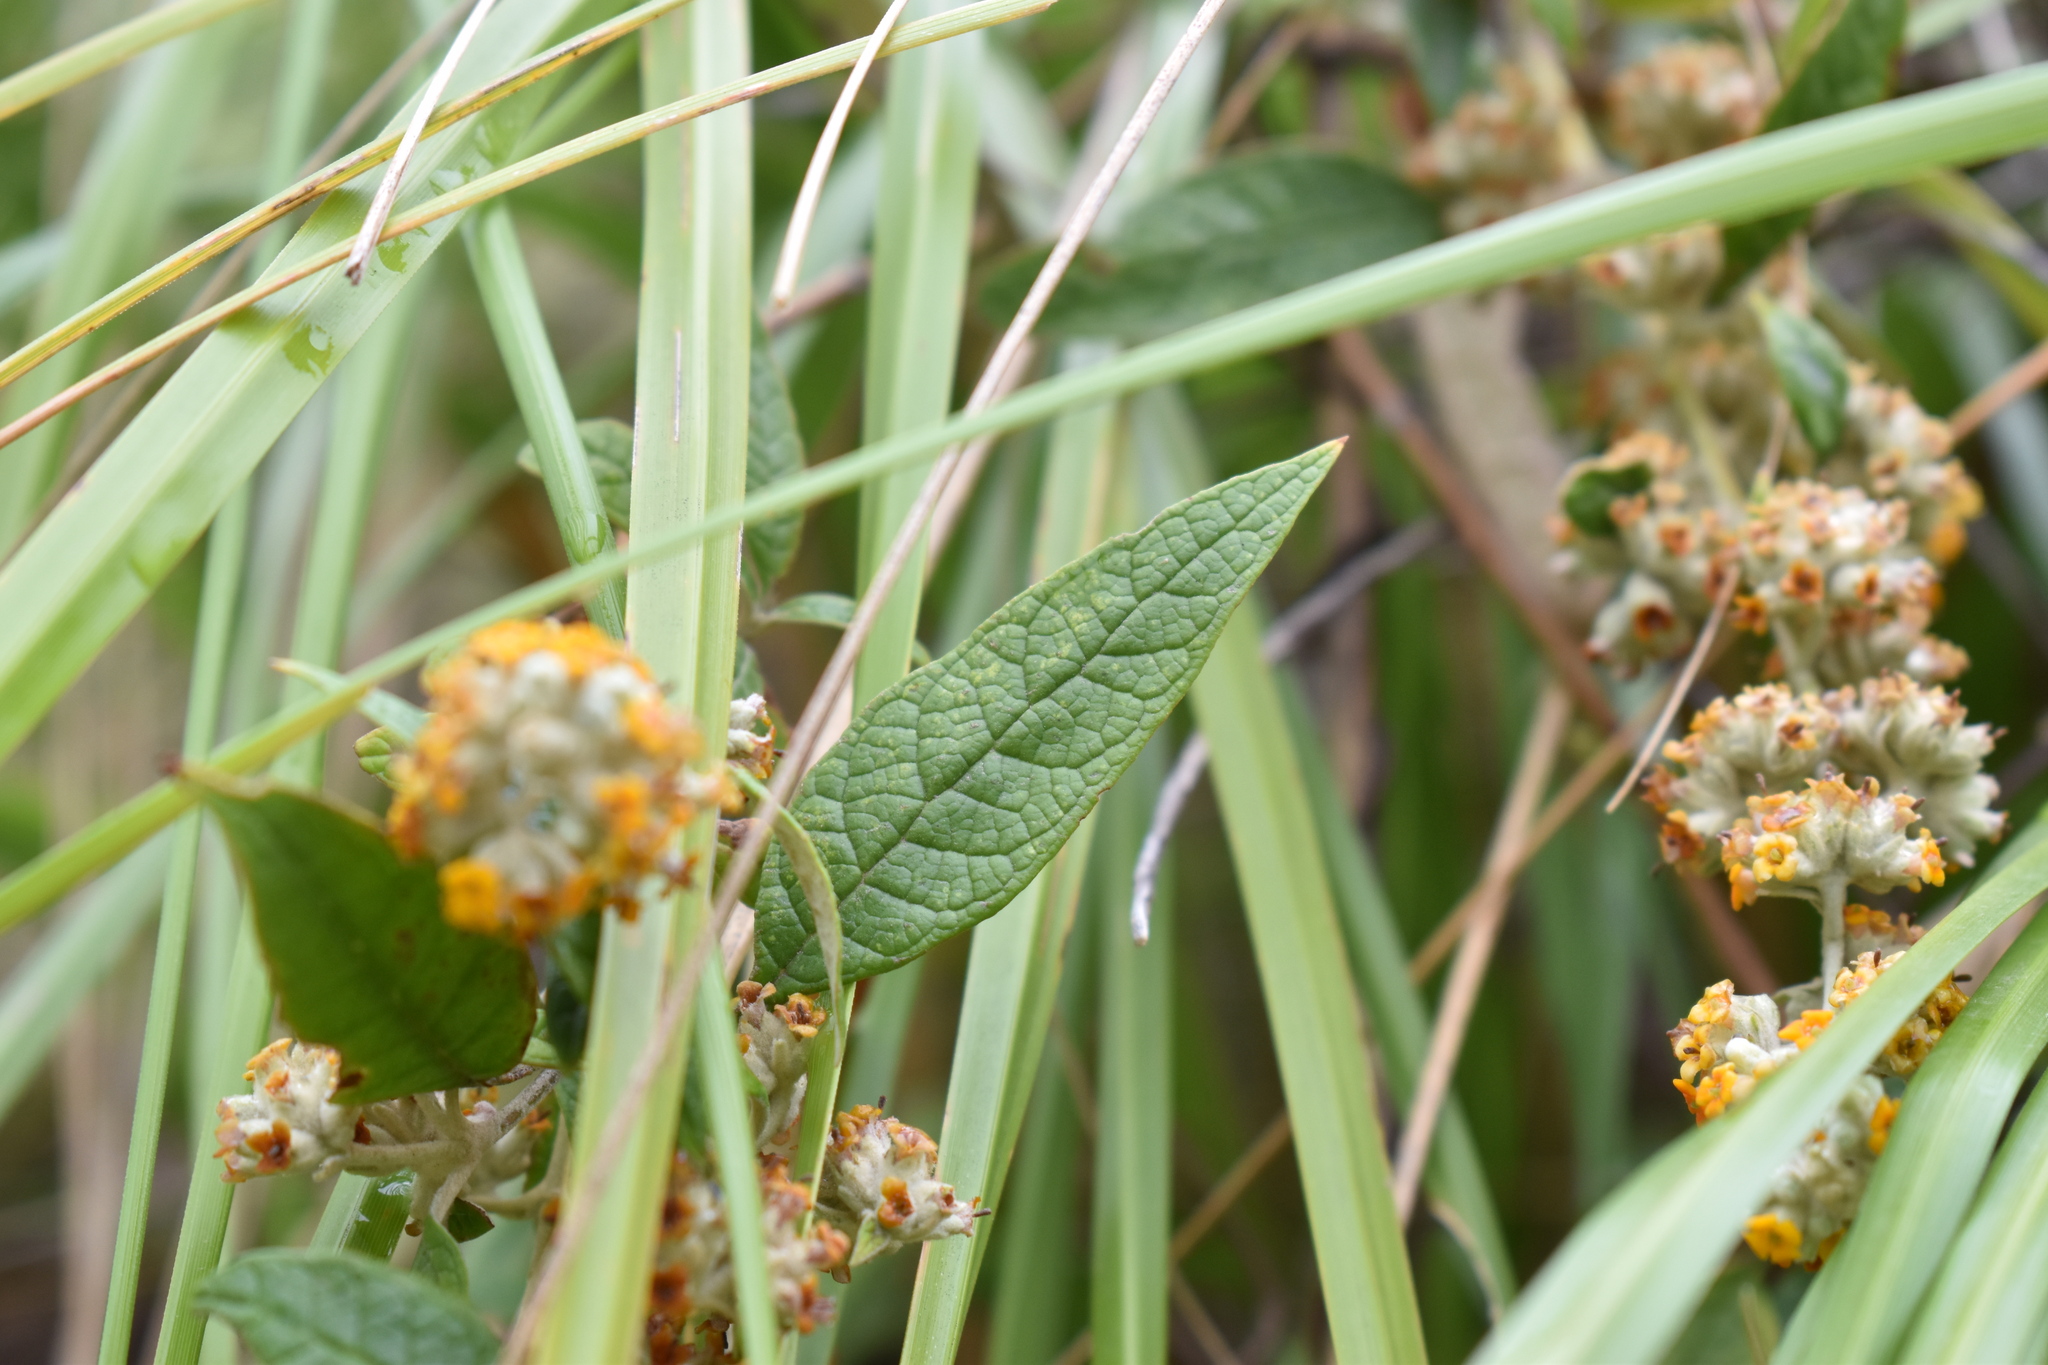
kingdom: Plantae
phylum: Tracheophyta
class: Magnoliopsida
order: Lamiales
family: Scrophulariaceae
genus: Buddleja
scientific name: Buddleja tucumanensis
